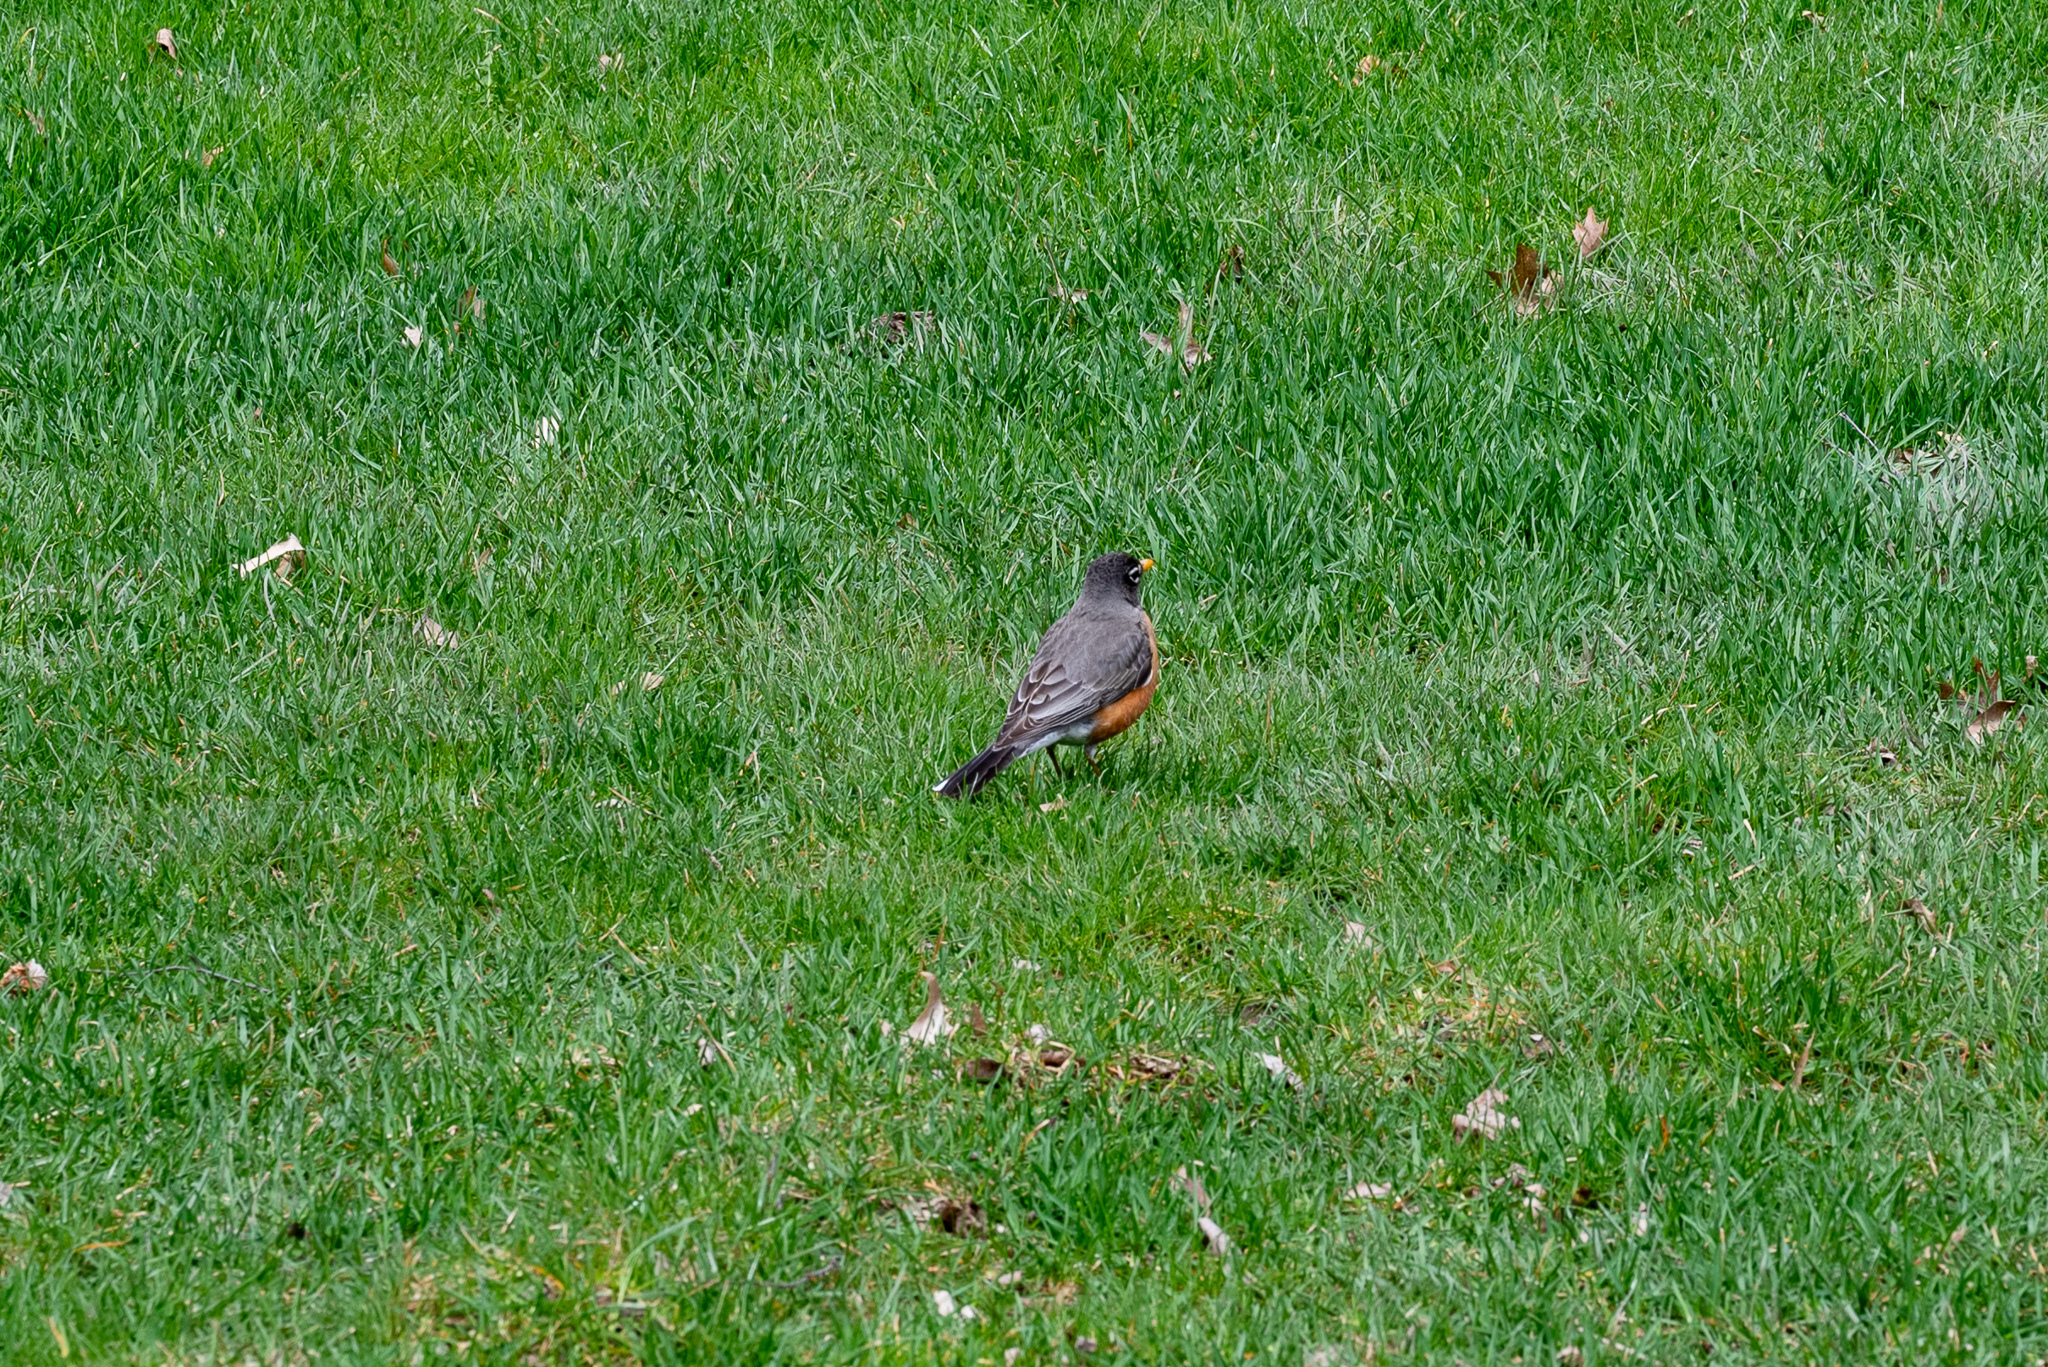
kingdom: Animalia
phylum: Chordata
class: Aves
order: Passeriformes
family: Turdidae
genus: Turdus
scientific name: Turdus migratorius
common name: American robin
